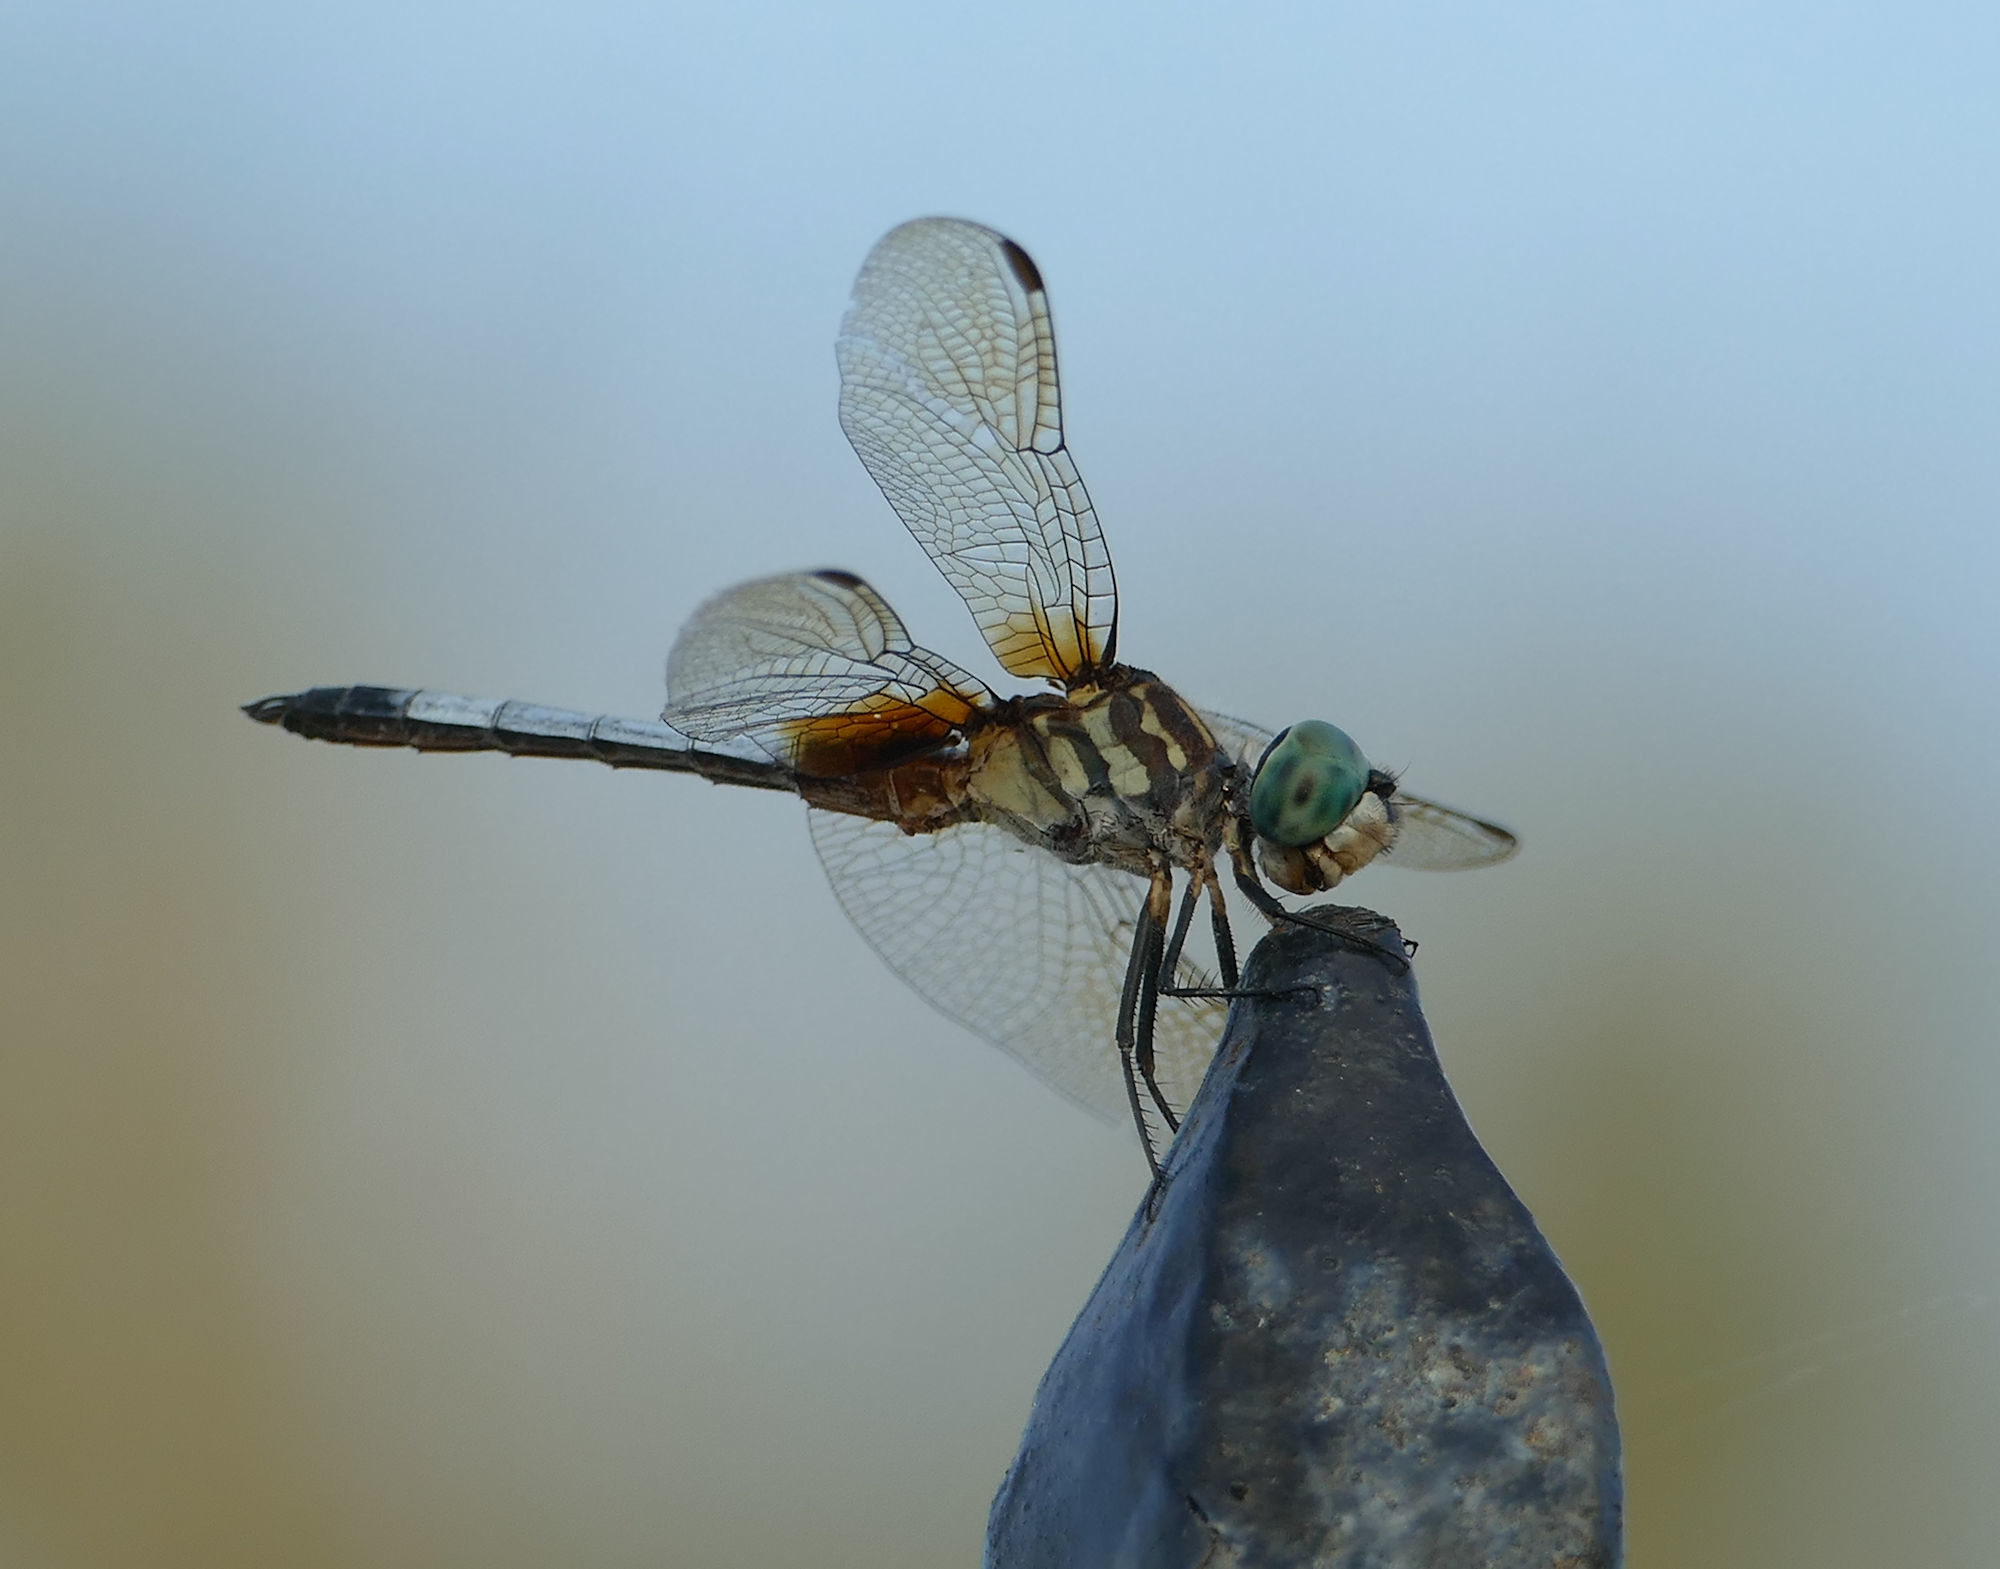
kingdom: Animalia
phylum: Arthropoda
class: Insecta
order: Odonata
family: Libellulidae
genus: Pachydiplax
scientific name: Pachydiplax longipennis
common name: Blue dasher
